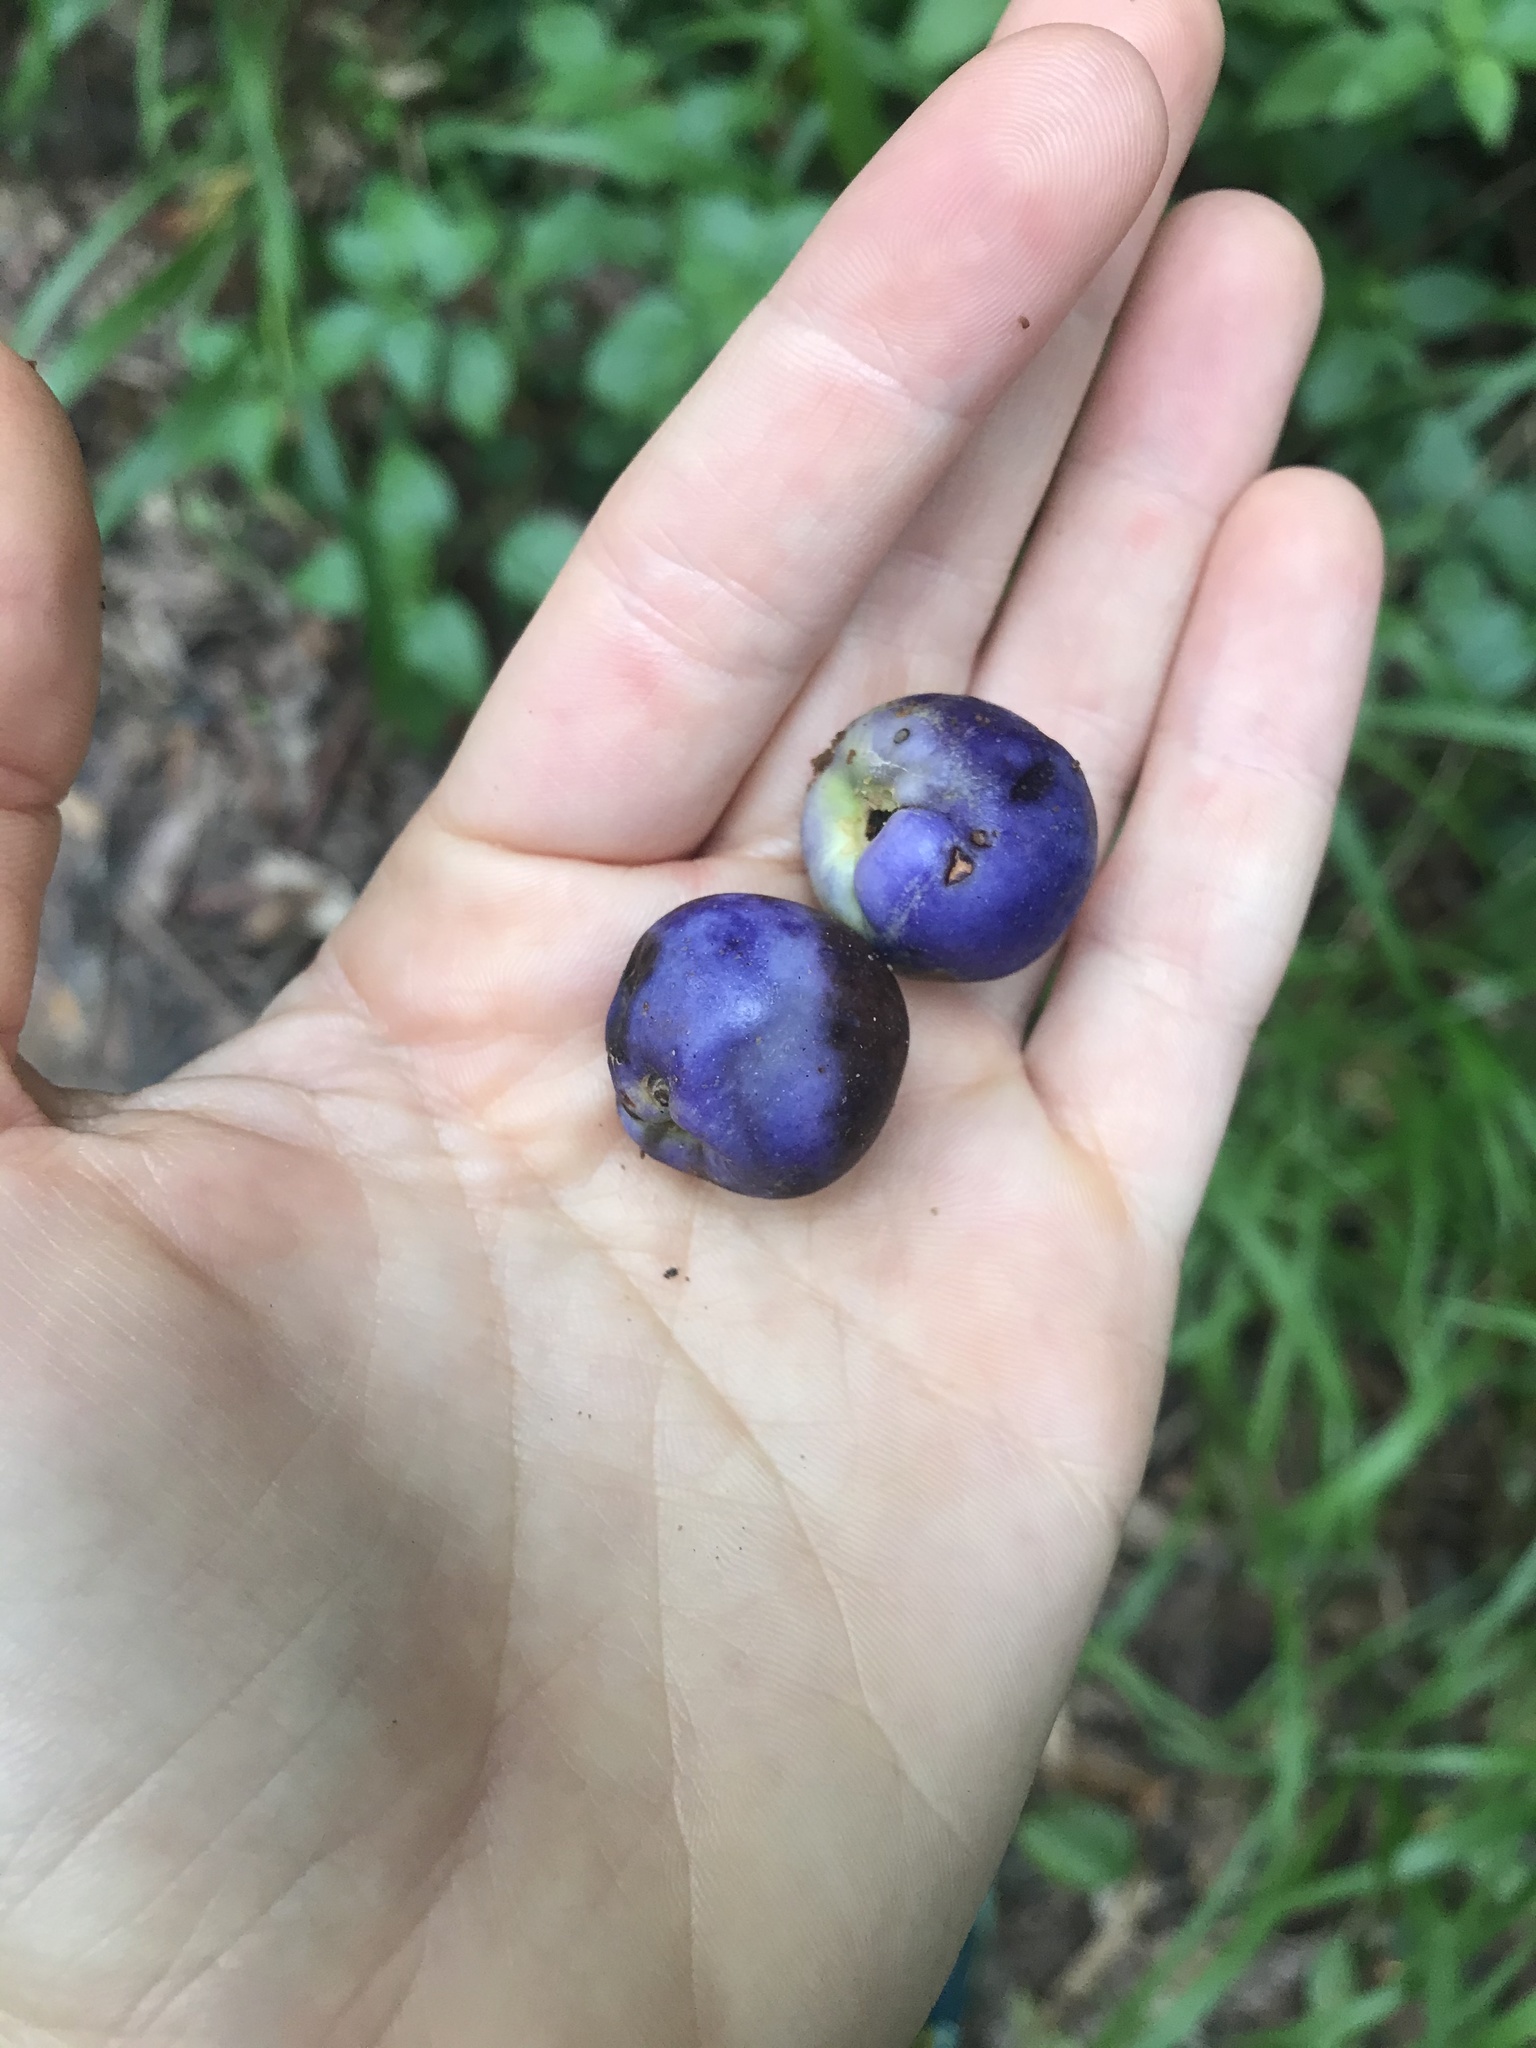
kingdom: Plantae
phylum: Tracheophyta
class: Magnoliopsida
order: Lamiales
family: Lamiaceae
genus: Gmelina
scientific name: Gmelina leichhardtii
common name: Queensland-beech
